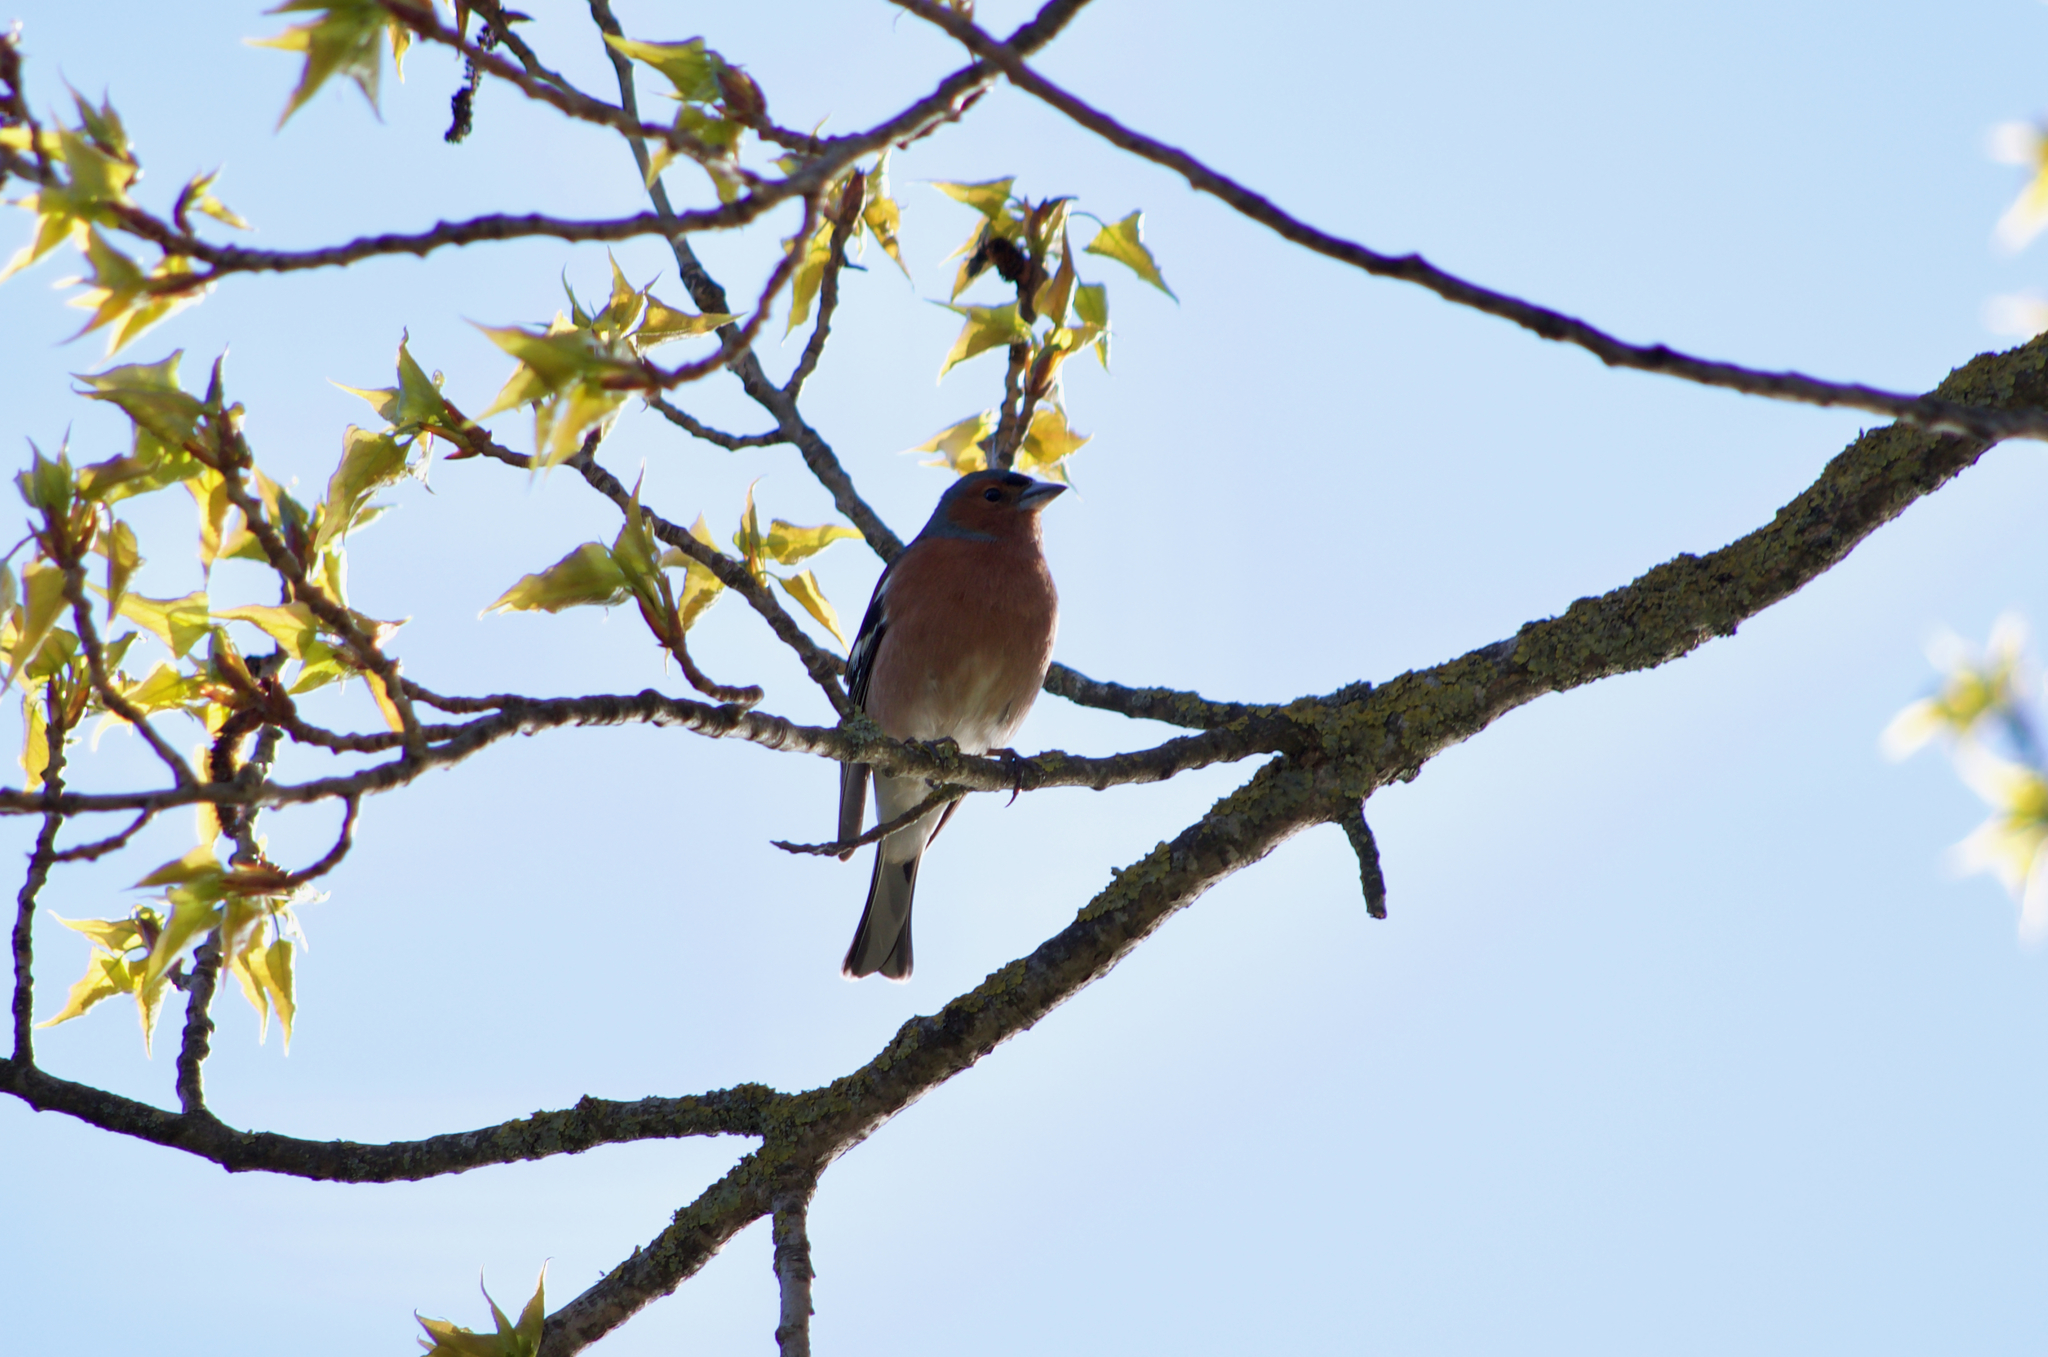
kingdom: Animalia
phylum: Chordata
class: Aves
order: Passeriformes
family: Fringillidae
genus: Fringilla
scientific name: Fringilla coelebs
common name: Common chaffinch
